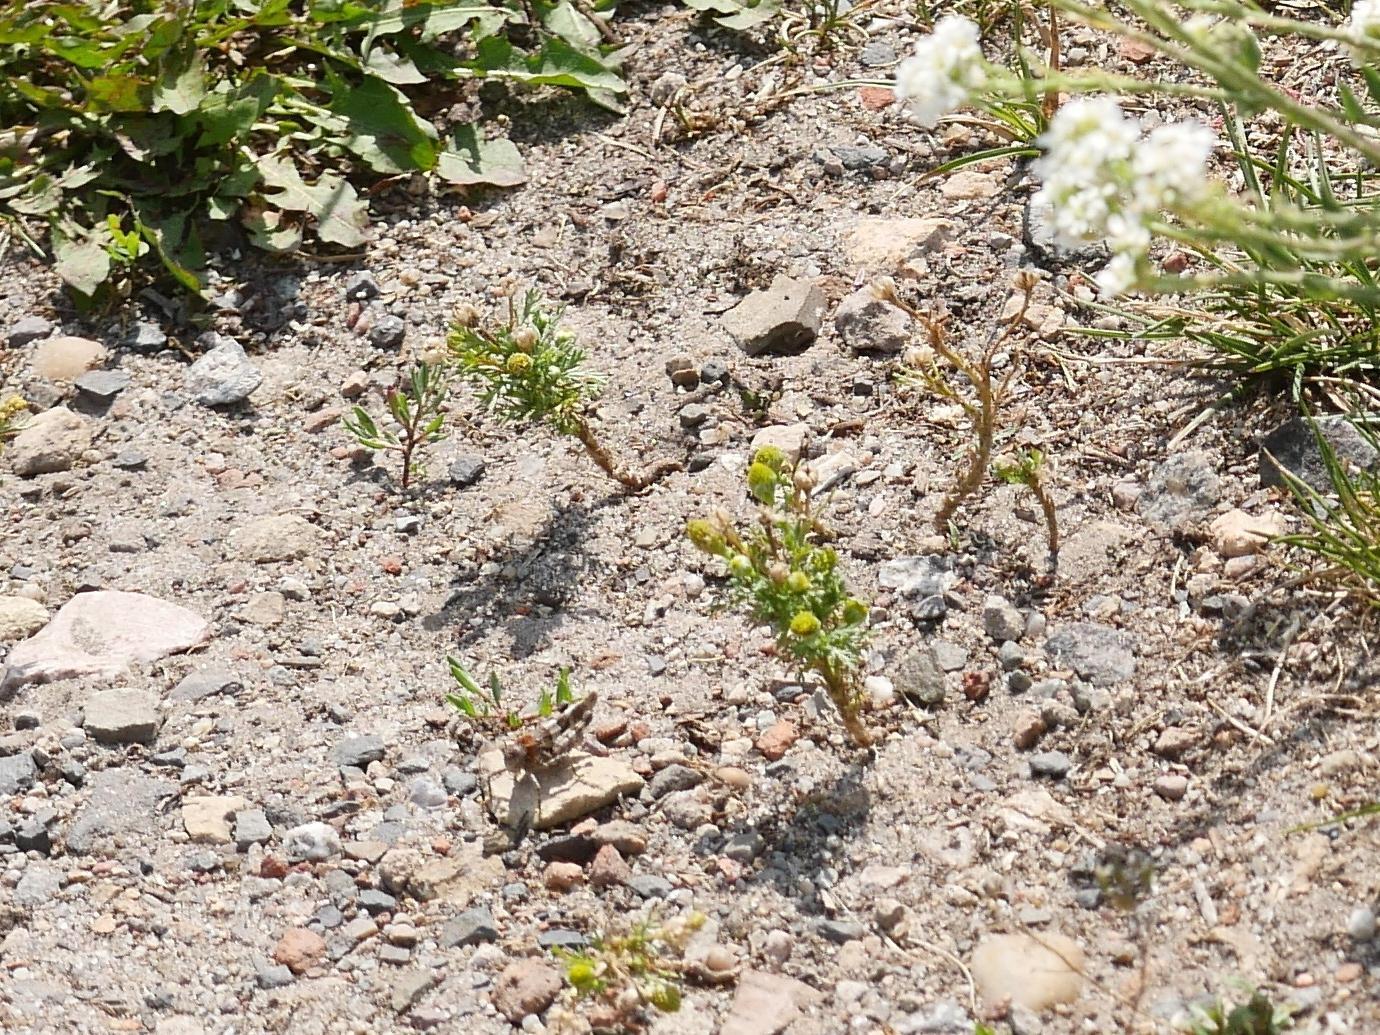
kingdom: Plantae
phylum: Tracheophyta
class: Magnoliopsida
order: Asterales
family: Asteraceae
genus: Matricaria
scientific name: Matricaria discoidea
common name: Disc mayweed
